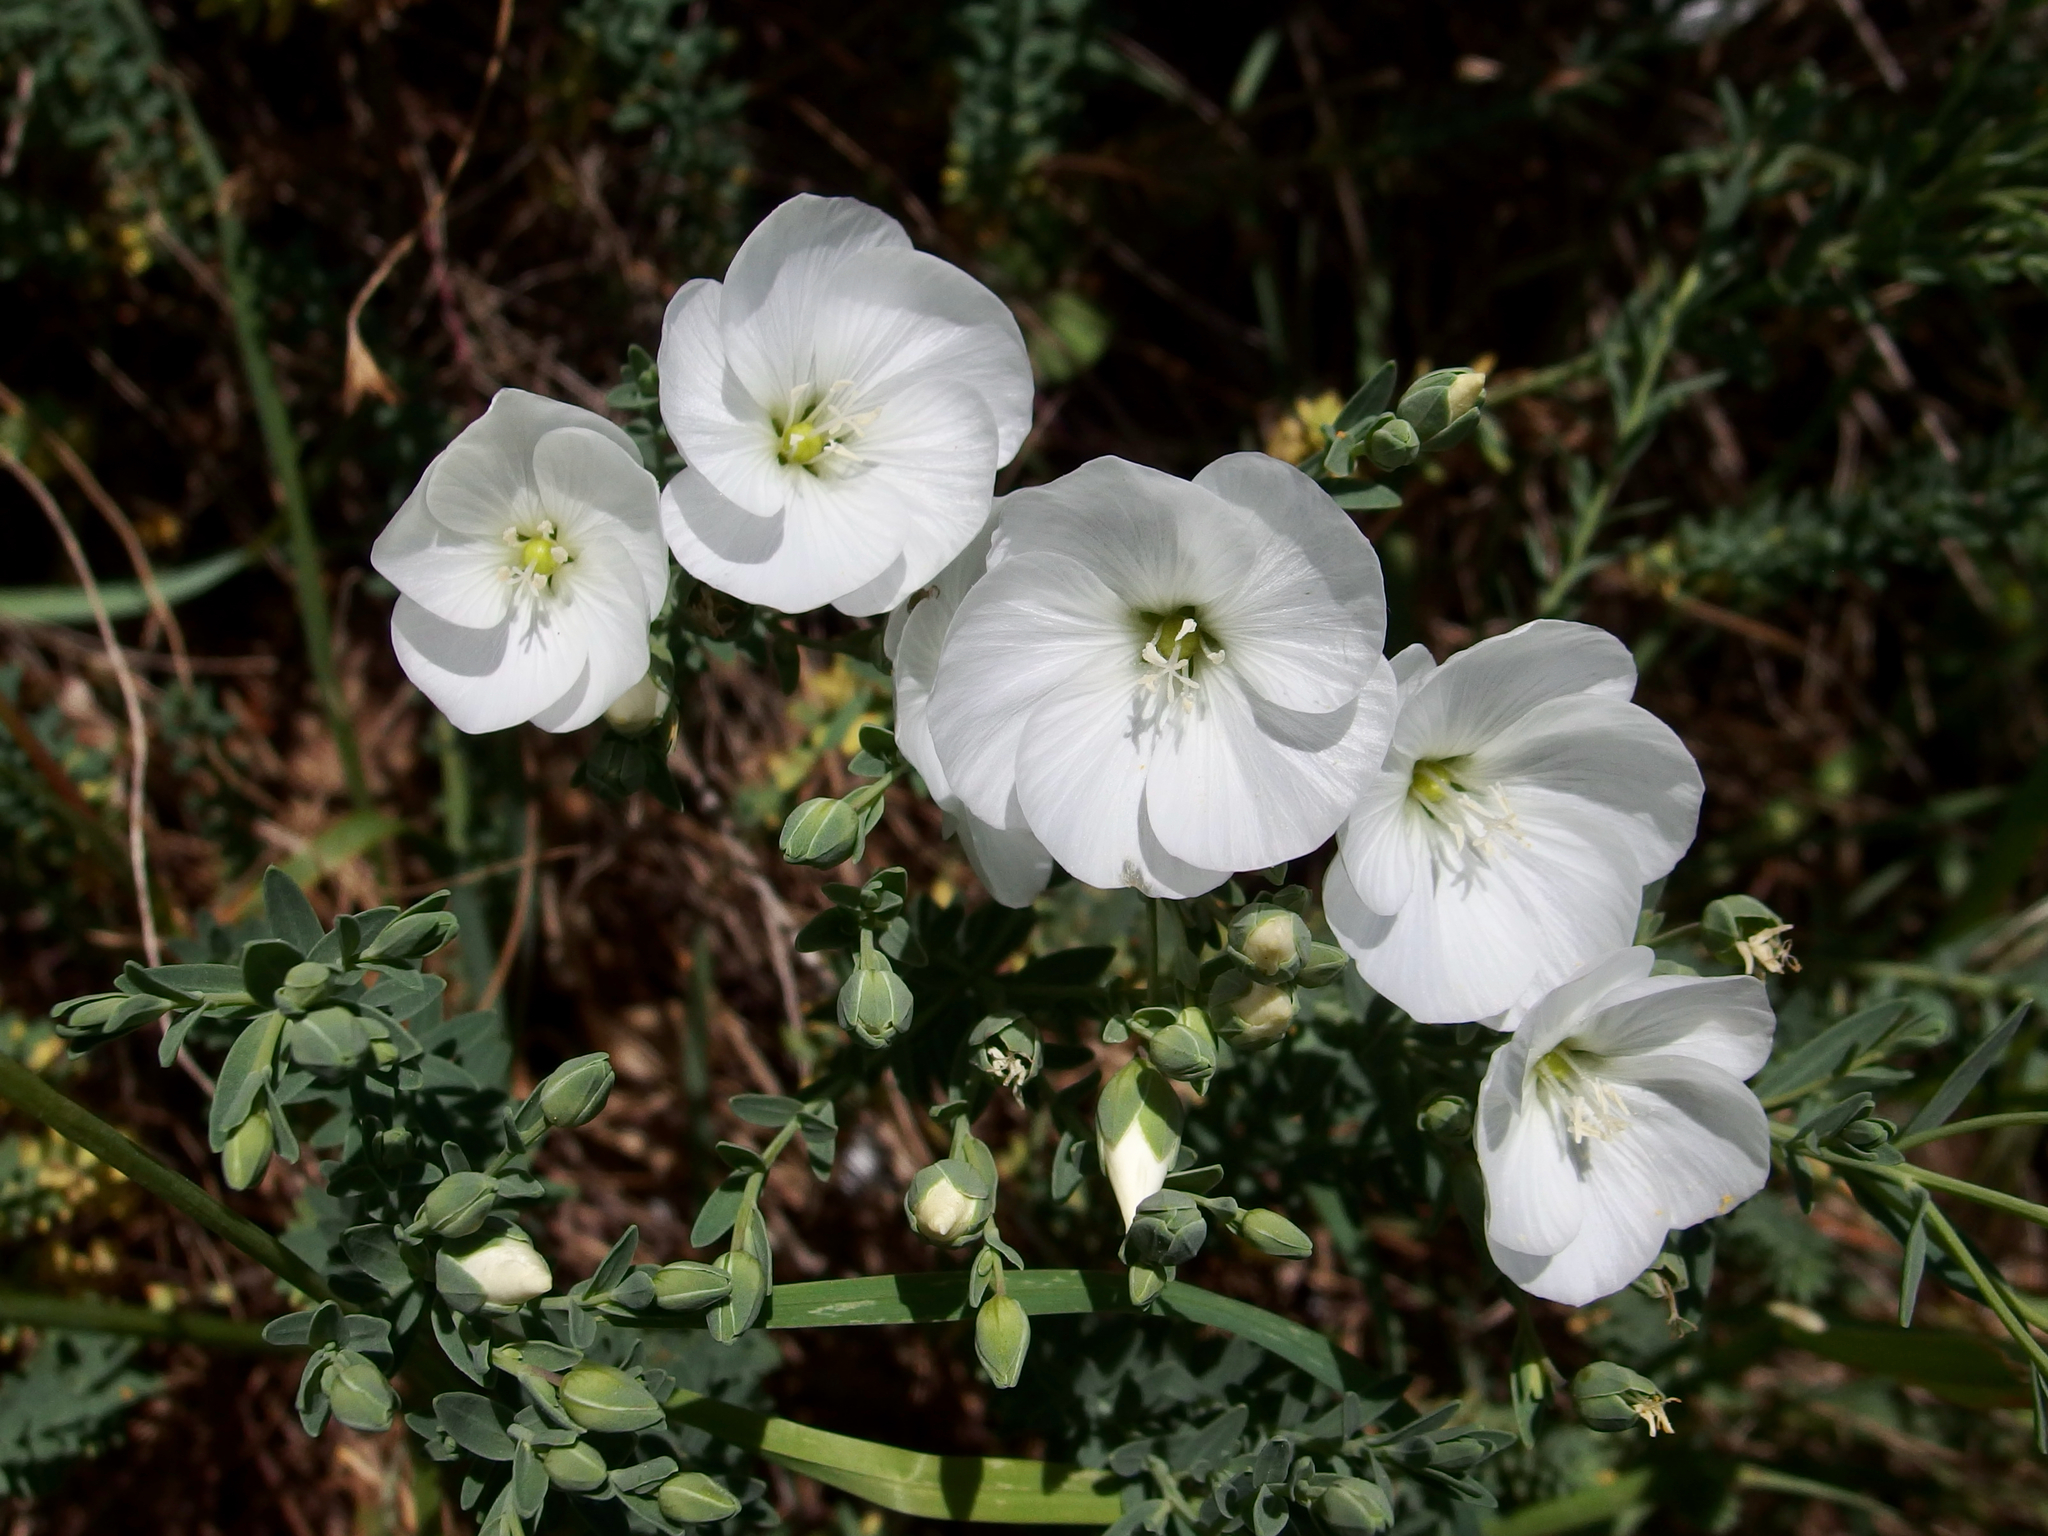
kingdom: Plantae
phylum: Tracheophyta
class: Magnoliopsida
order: Malpighiales
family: Linaceae
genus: Linum
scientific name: Linum monogynum
